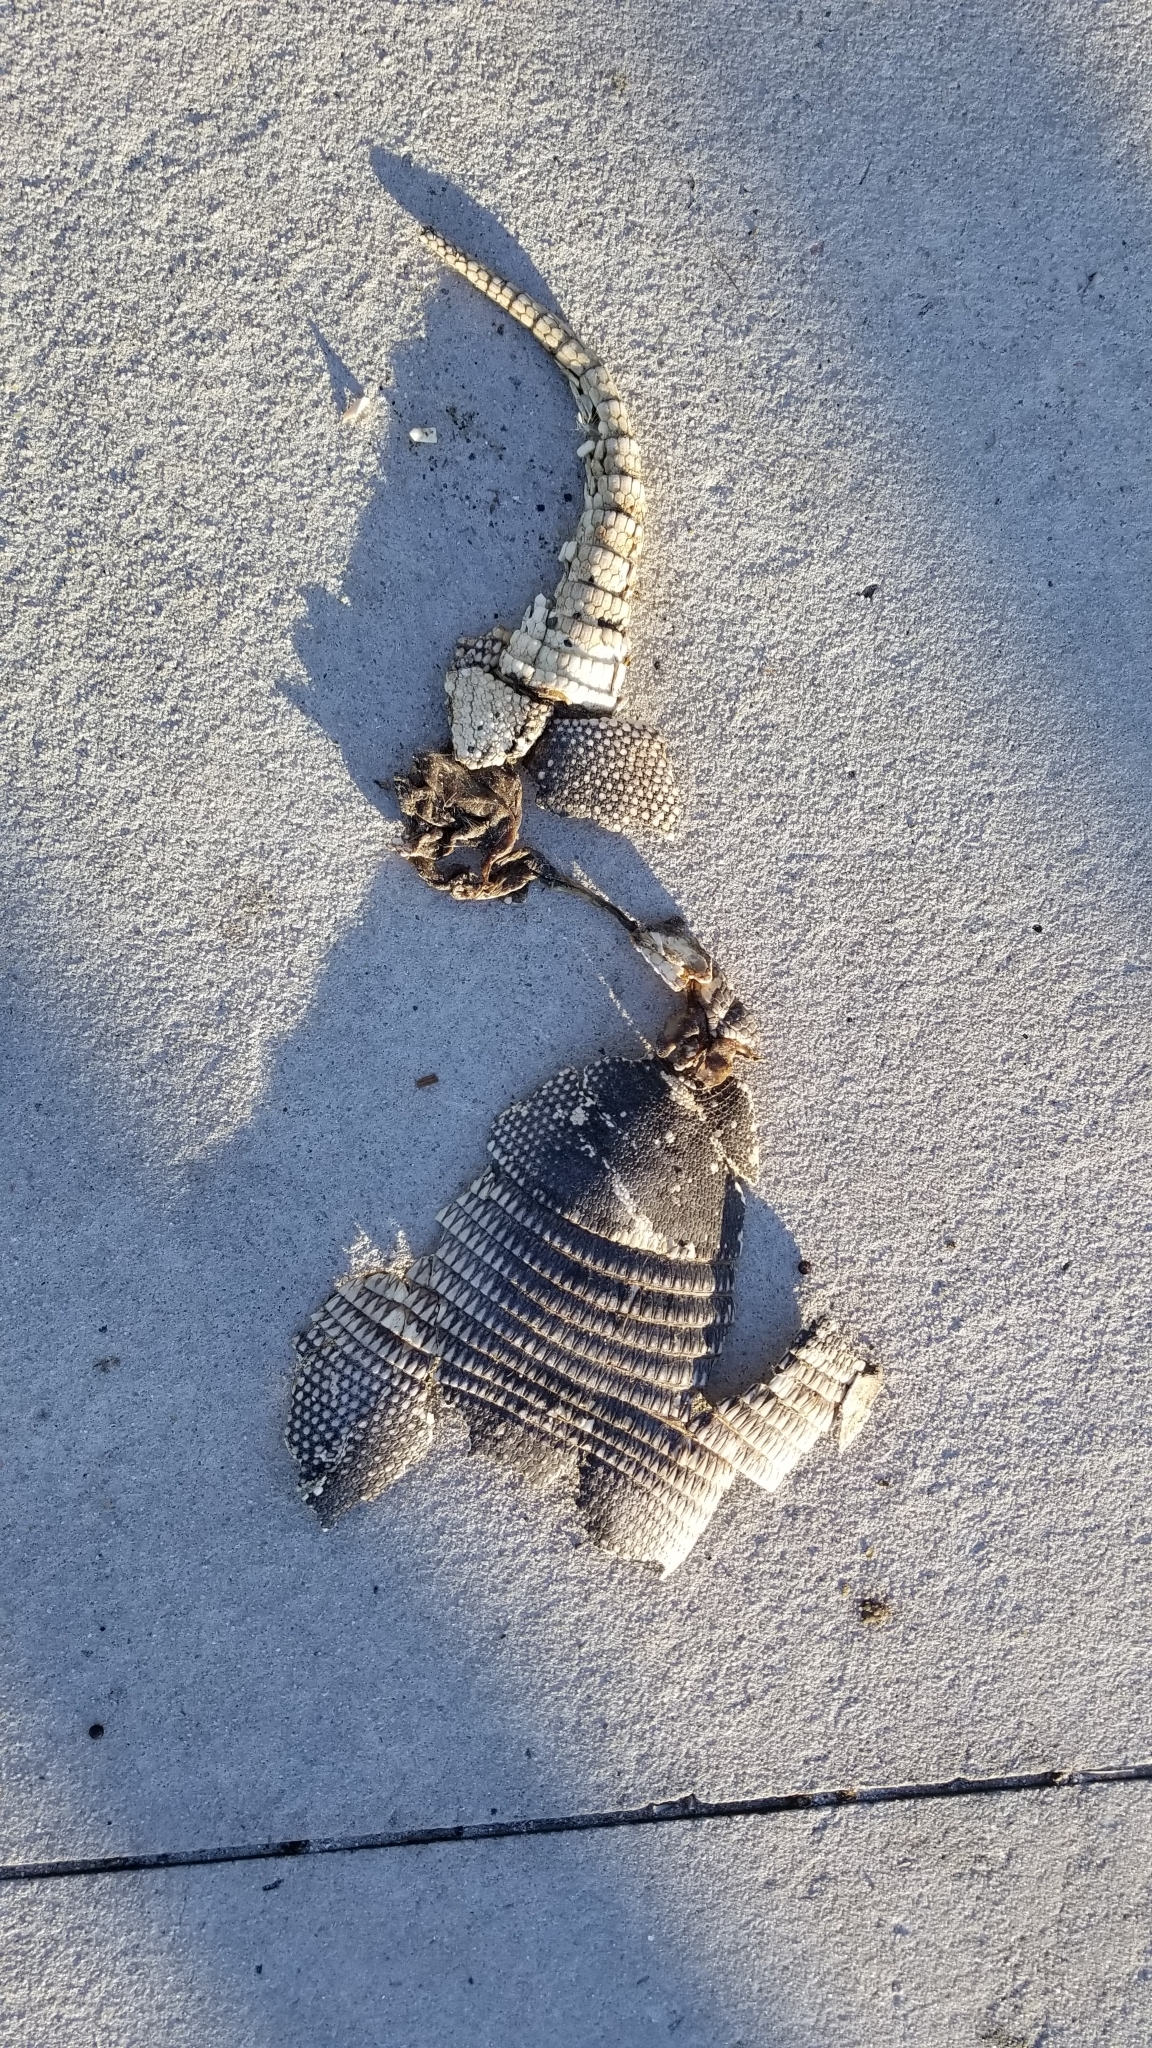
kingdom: Animalia
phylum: Chordata
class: Mammalia
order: Cingulata
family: Dasypodidae
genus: Dasypus
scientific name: Dasypus novemcinctus
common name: Nine-banded armadillo
